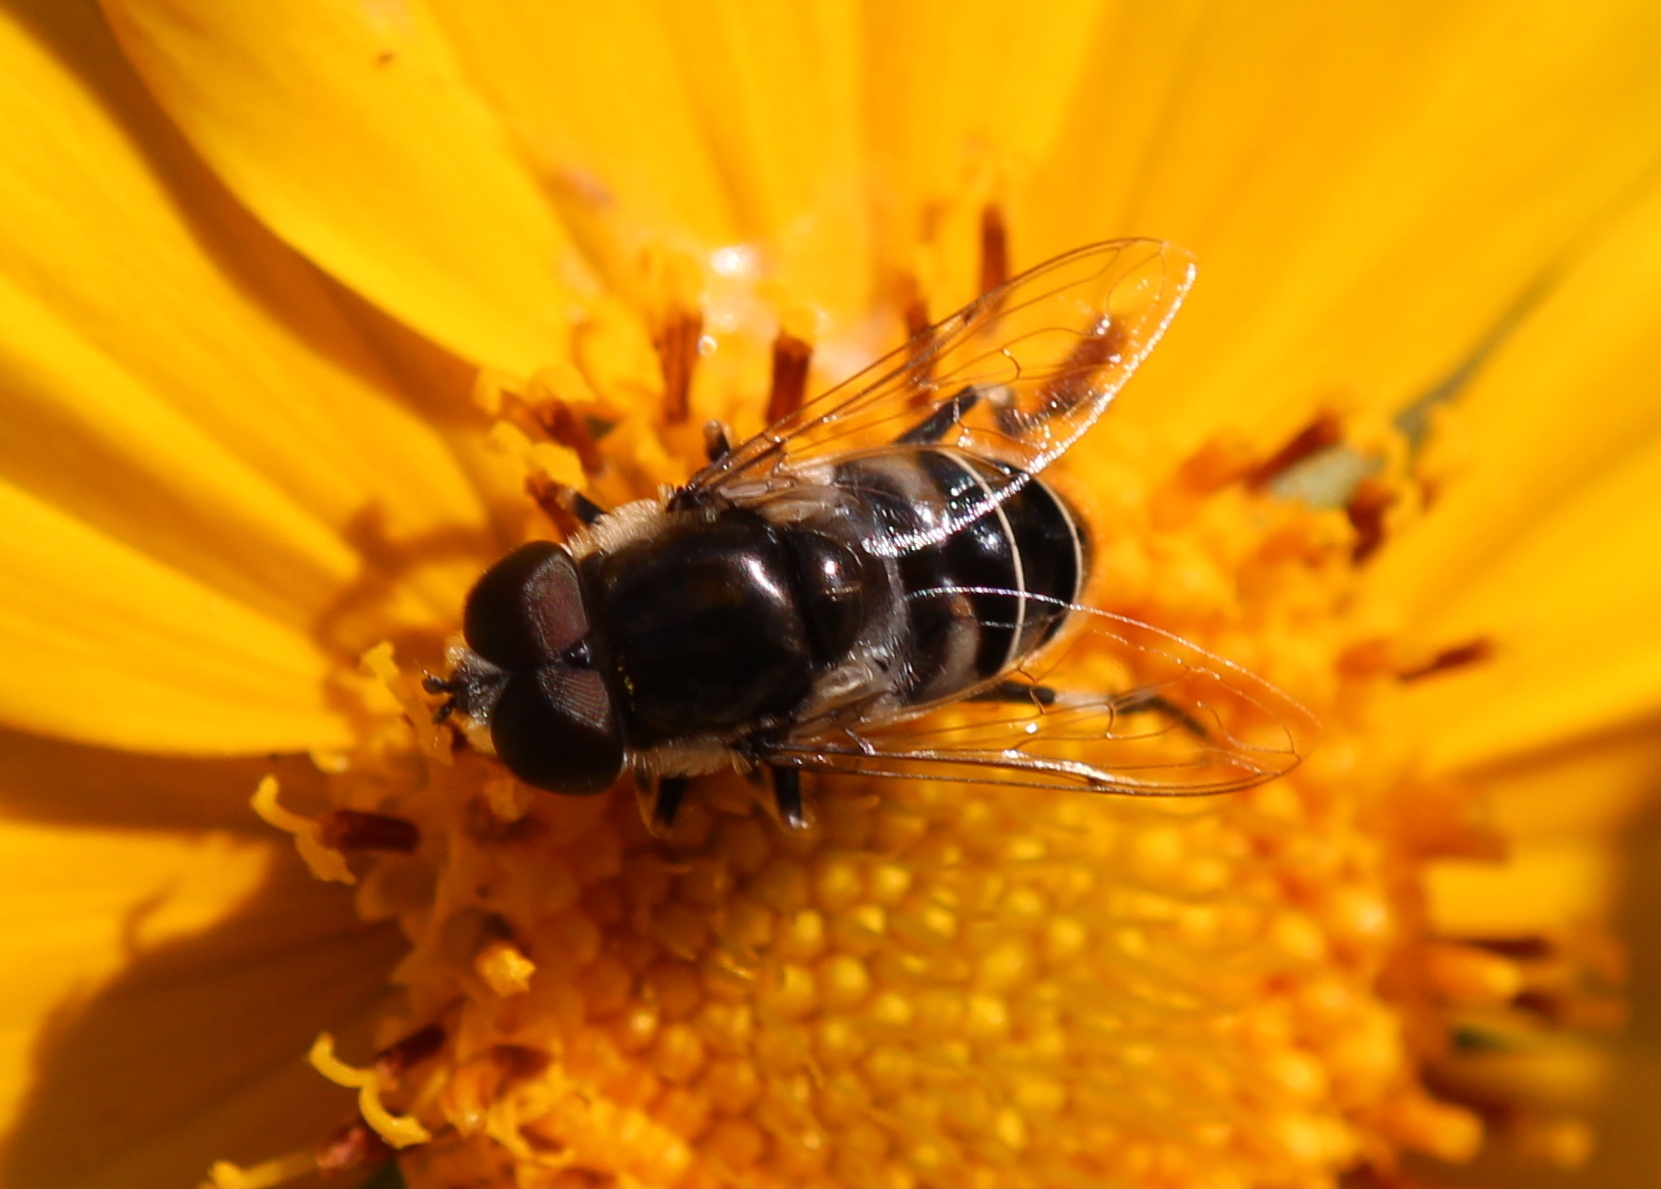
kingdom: Animalia
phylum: Arthropoda
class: Insecta
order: Diptera
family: Syrphidae
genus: Eristalis
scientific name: Eristalis dimidiata
